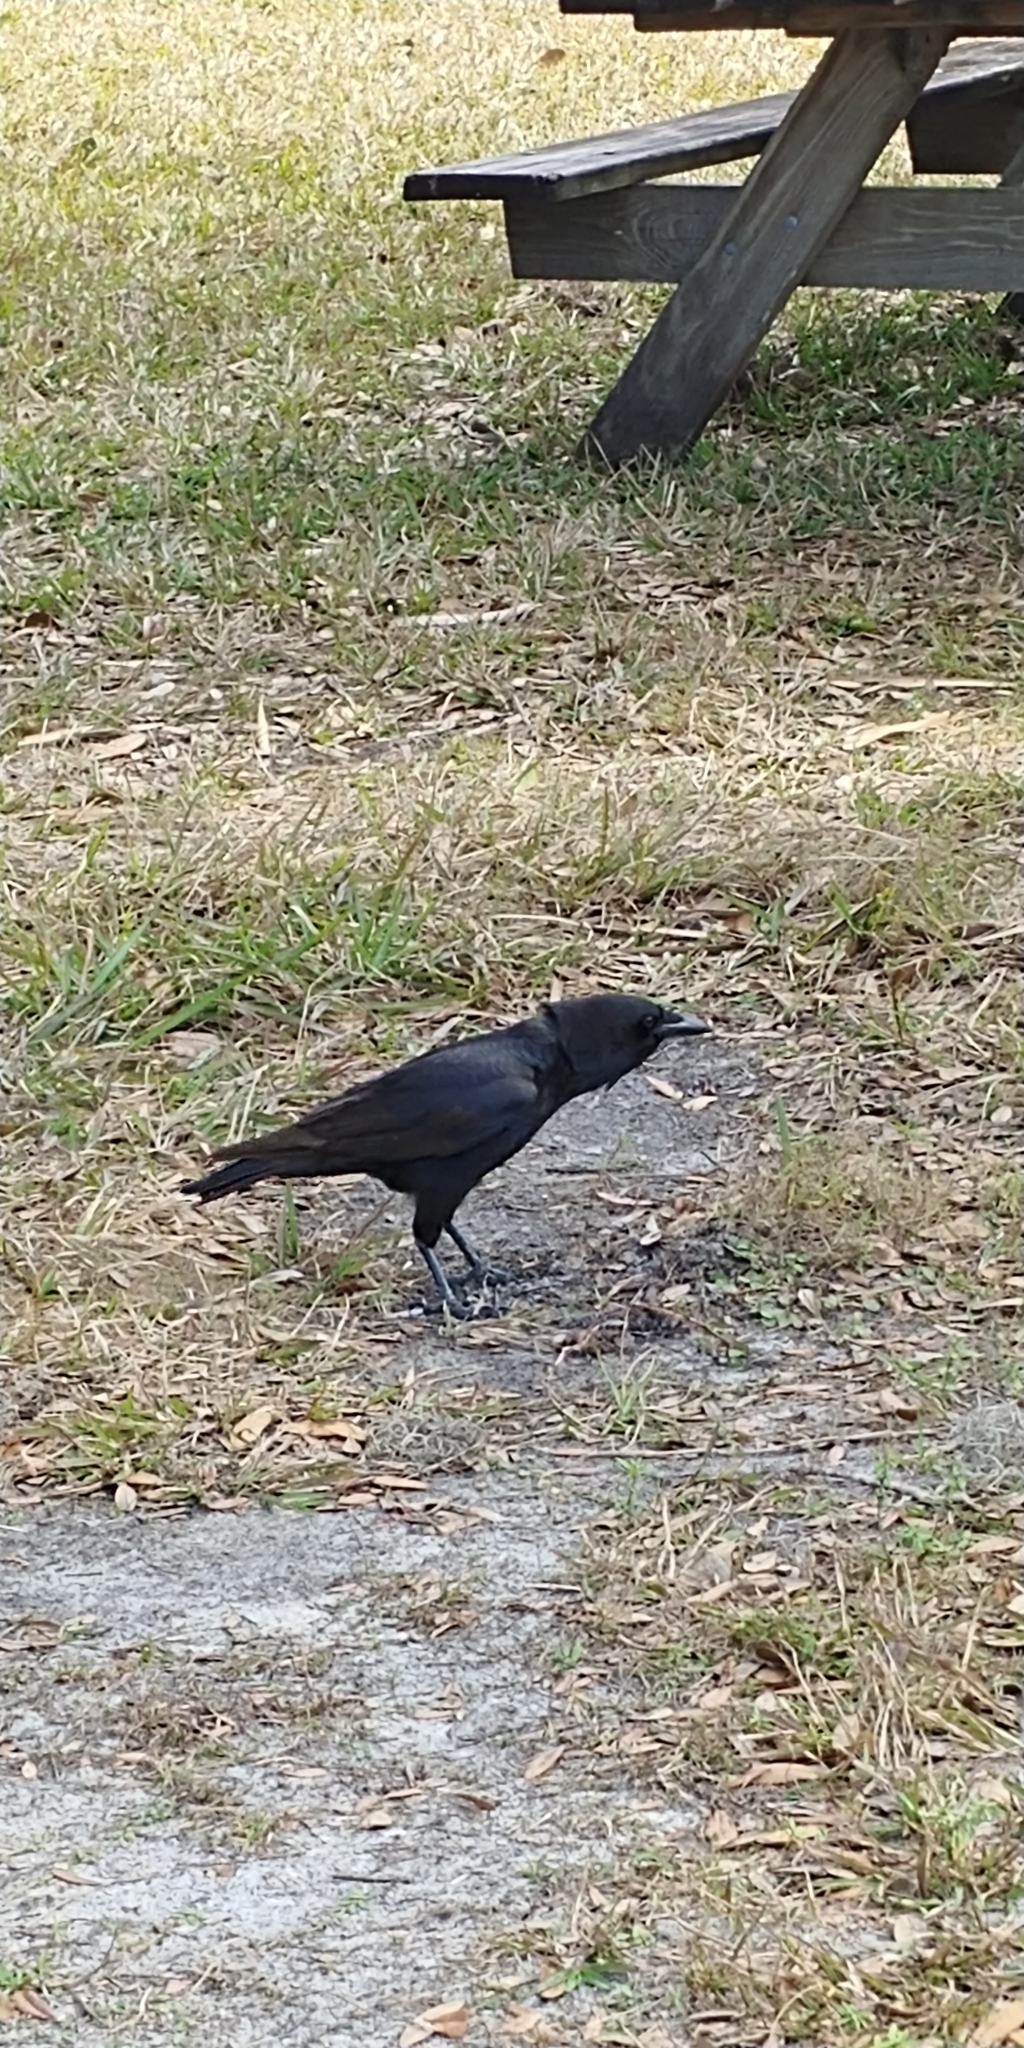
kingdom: Animalia
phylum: Chordata
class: Aves
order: Passeriformes
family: Corvidae
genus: Corvus
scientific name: Corvus brachyrhynchos
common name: American crow
